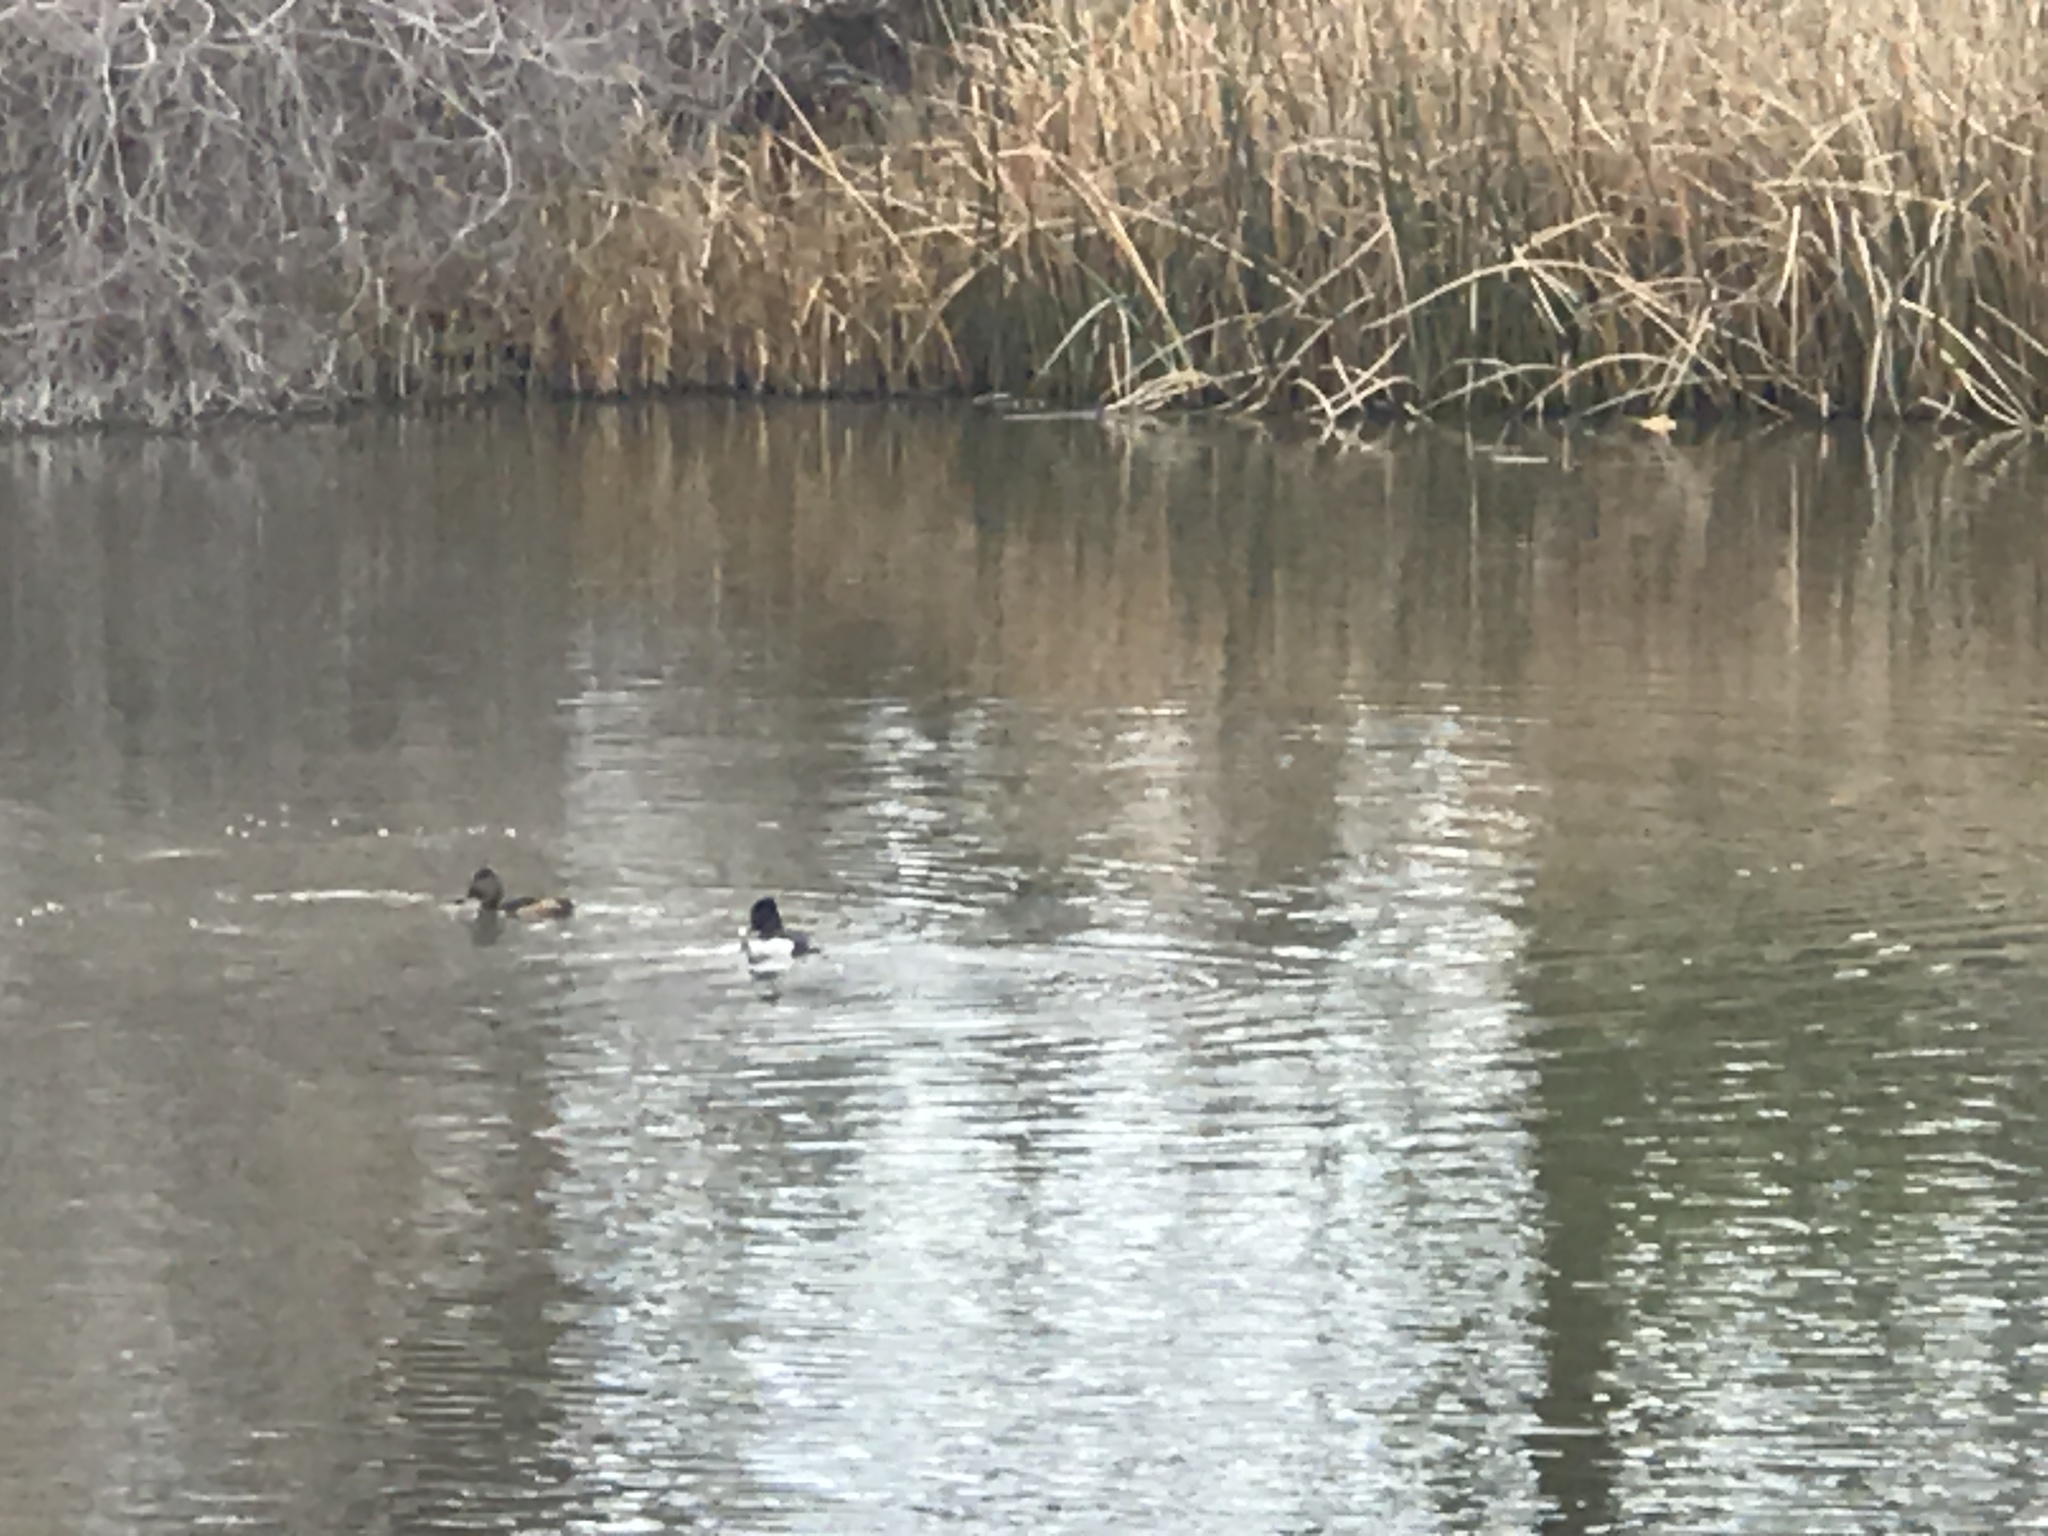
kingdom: Animalia
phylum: Chordata
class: Aves
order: Anseriformes
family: Anatidae
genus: Aythya
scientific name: Aythya collaris
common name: Ring-necked duck
